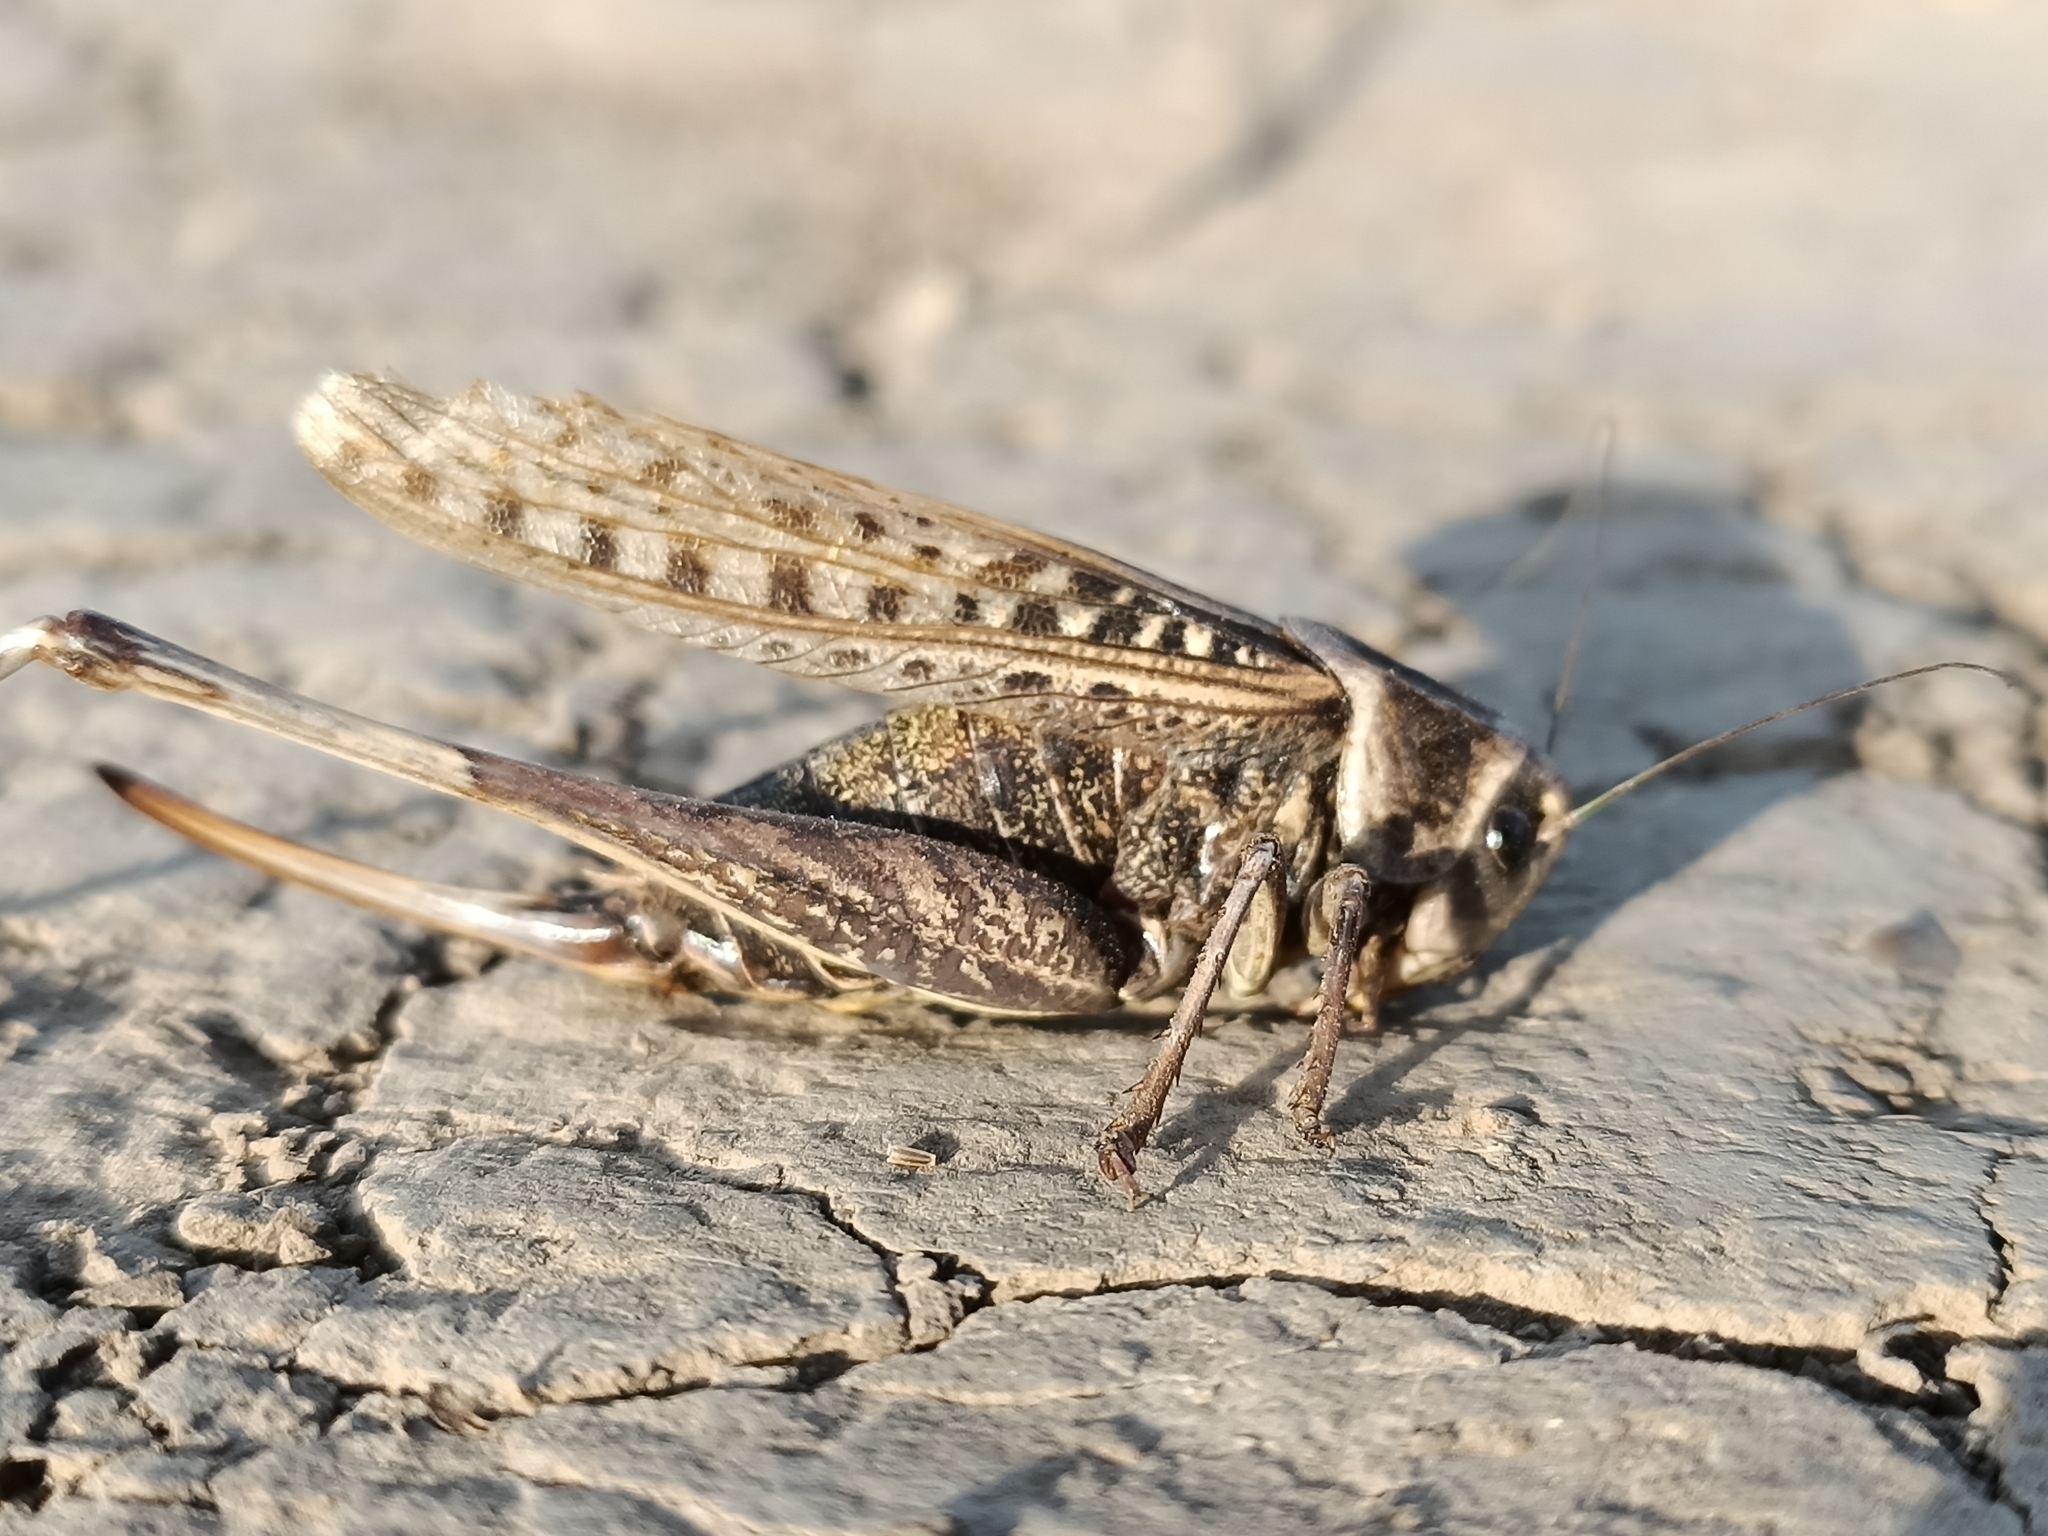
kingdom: Animalia
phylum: Arthropoda
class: Insecta
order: Orthoptera
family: Tettigoniidae
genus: Decticus
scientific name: Decticus verrucivorus
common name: Wart-biter
